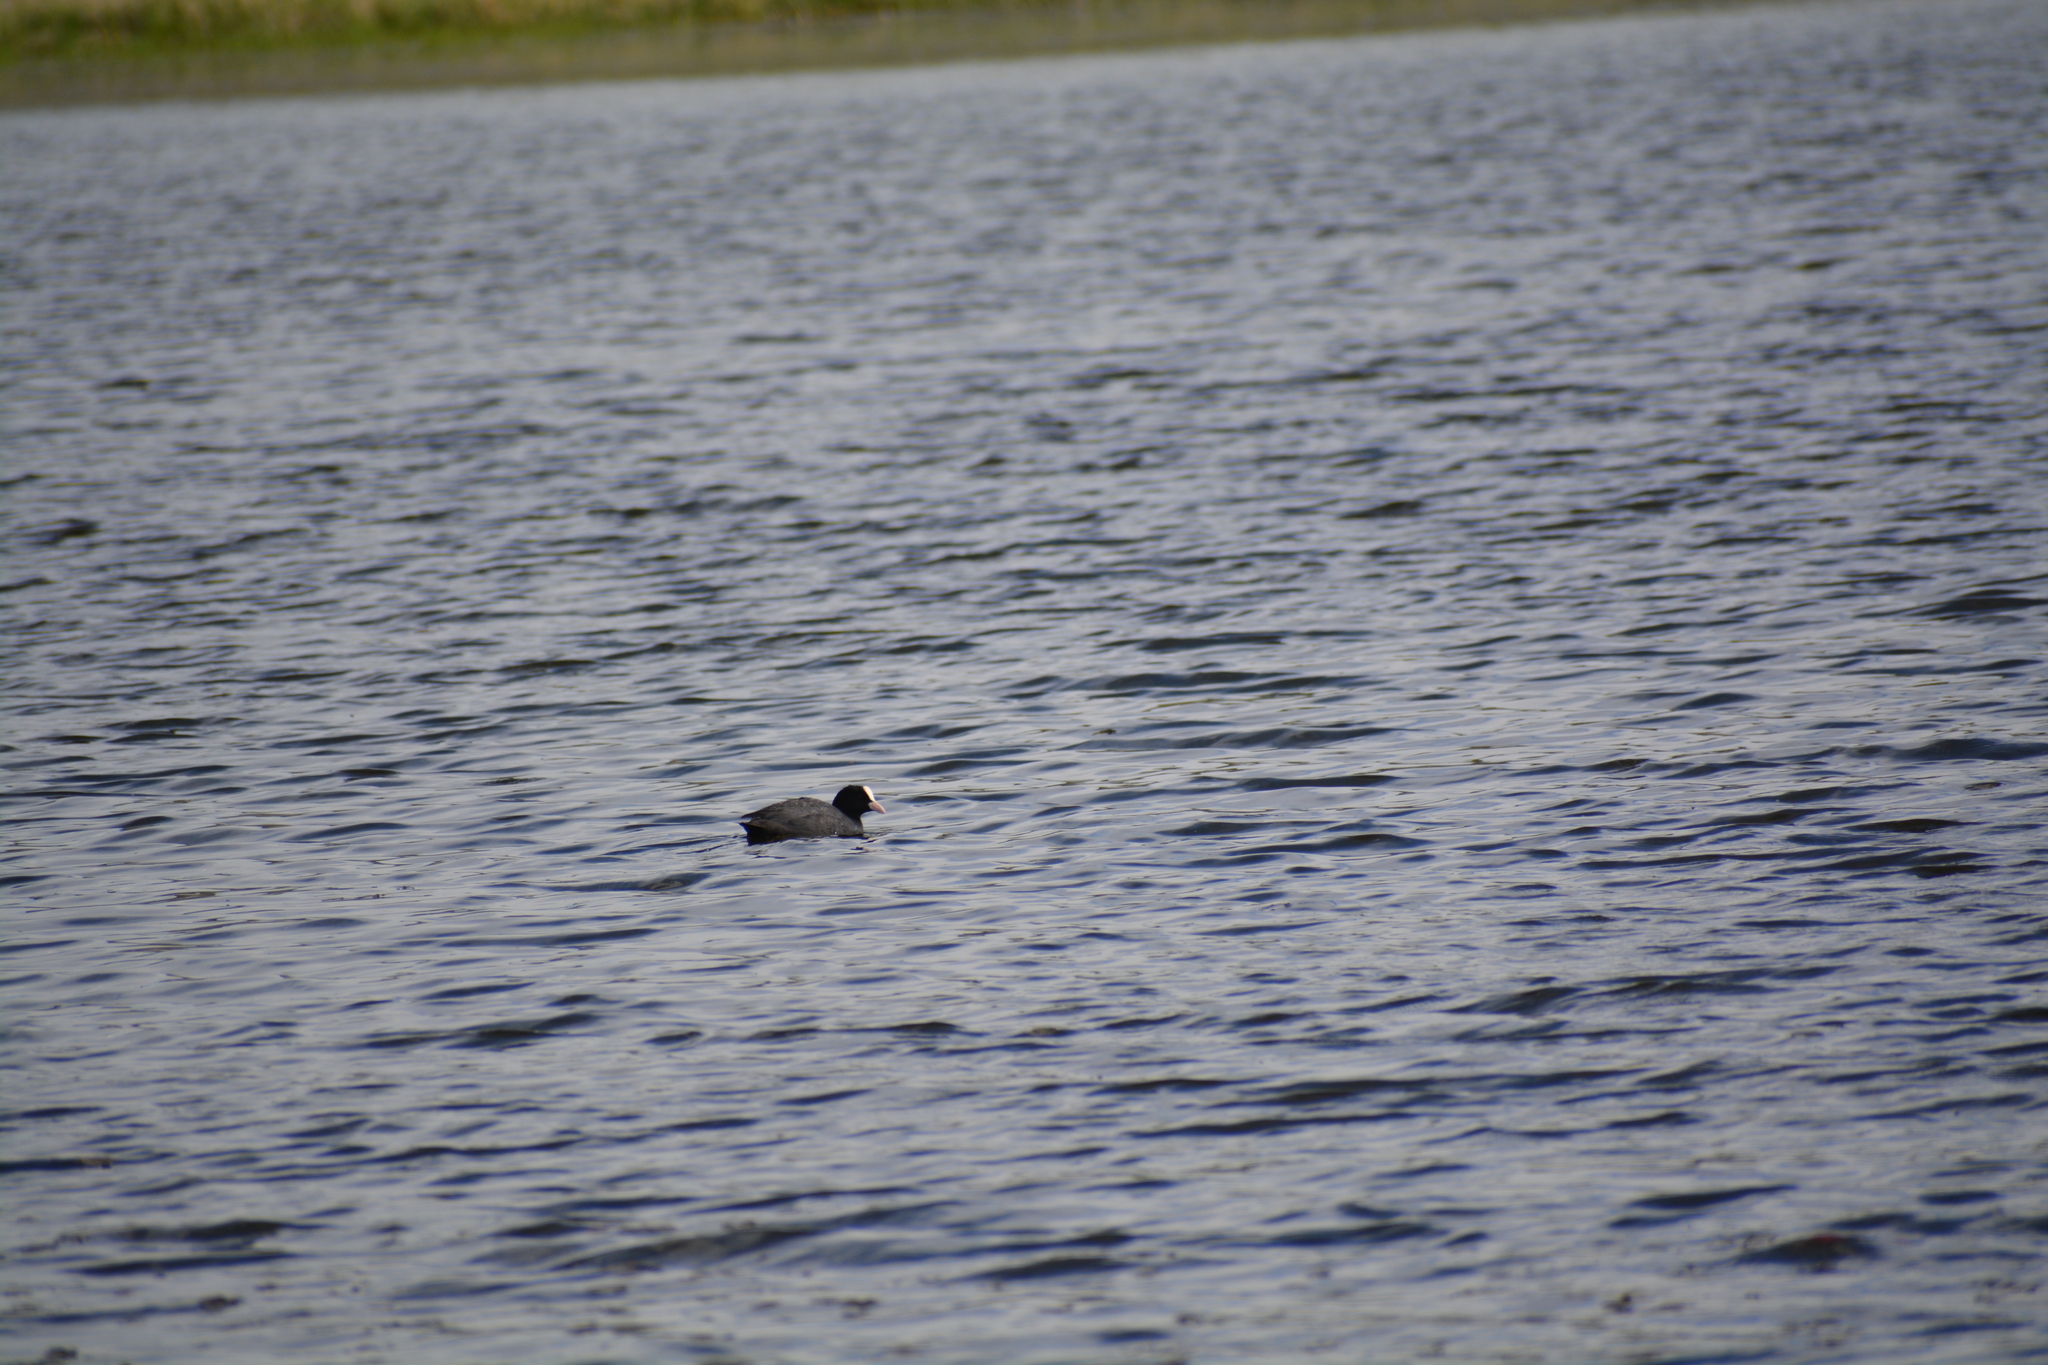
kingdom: Animalia
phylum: Chordata
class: Aves
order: Gruiformes
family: Rallidae
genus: Fulica
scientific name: Fulica atra
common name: Eurasian coot
